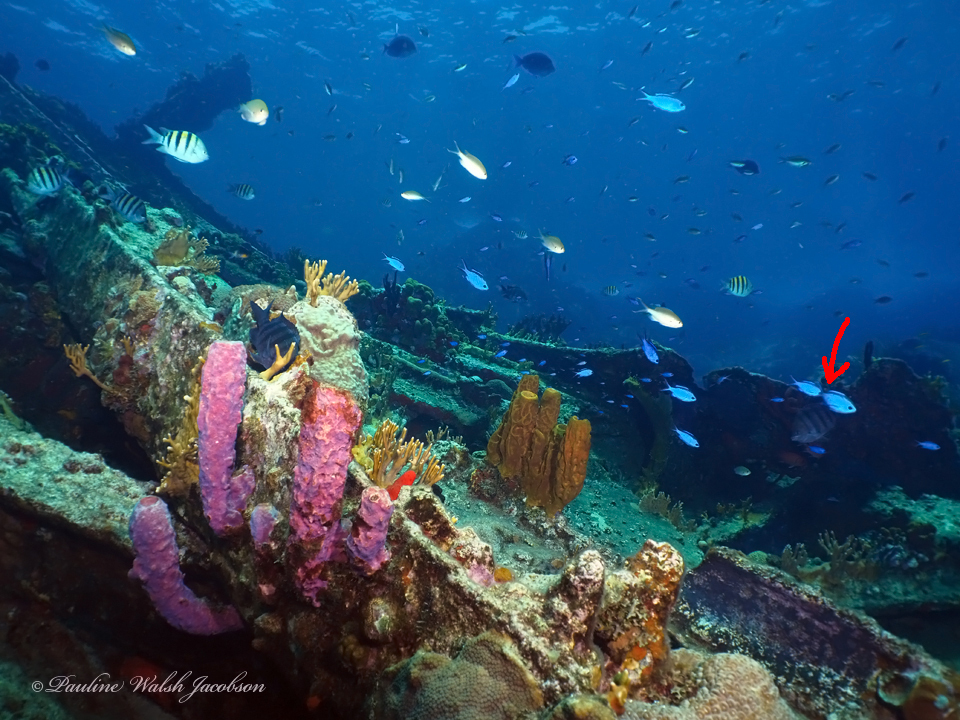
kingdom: Animalia
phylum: Chordata
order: Perciformes
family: Pomacentridae
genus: Chromis
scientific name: Chromis cyanea
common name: Blue chromis
